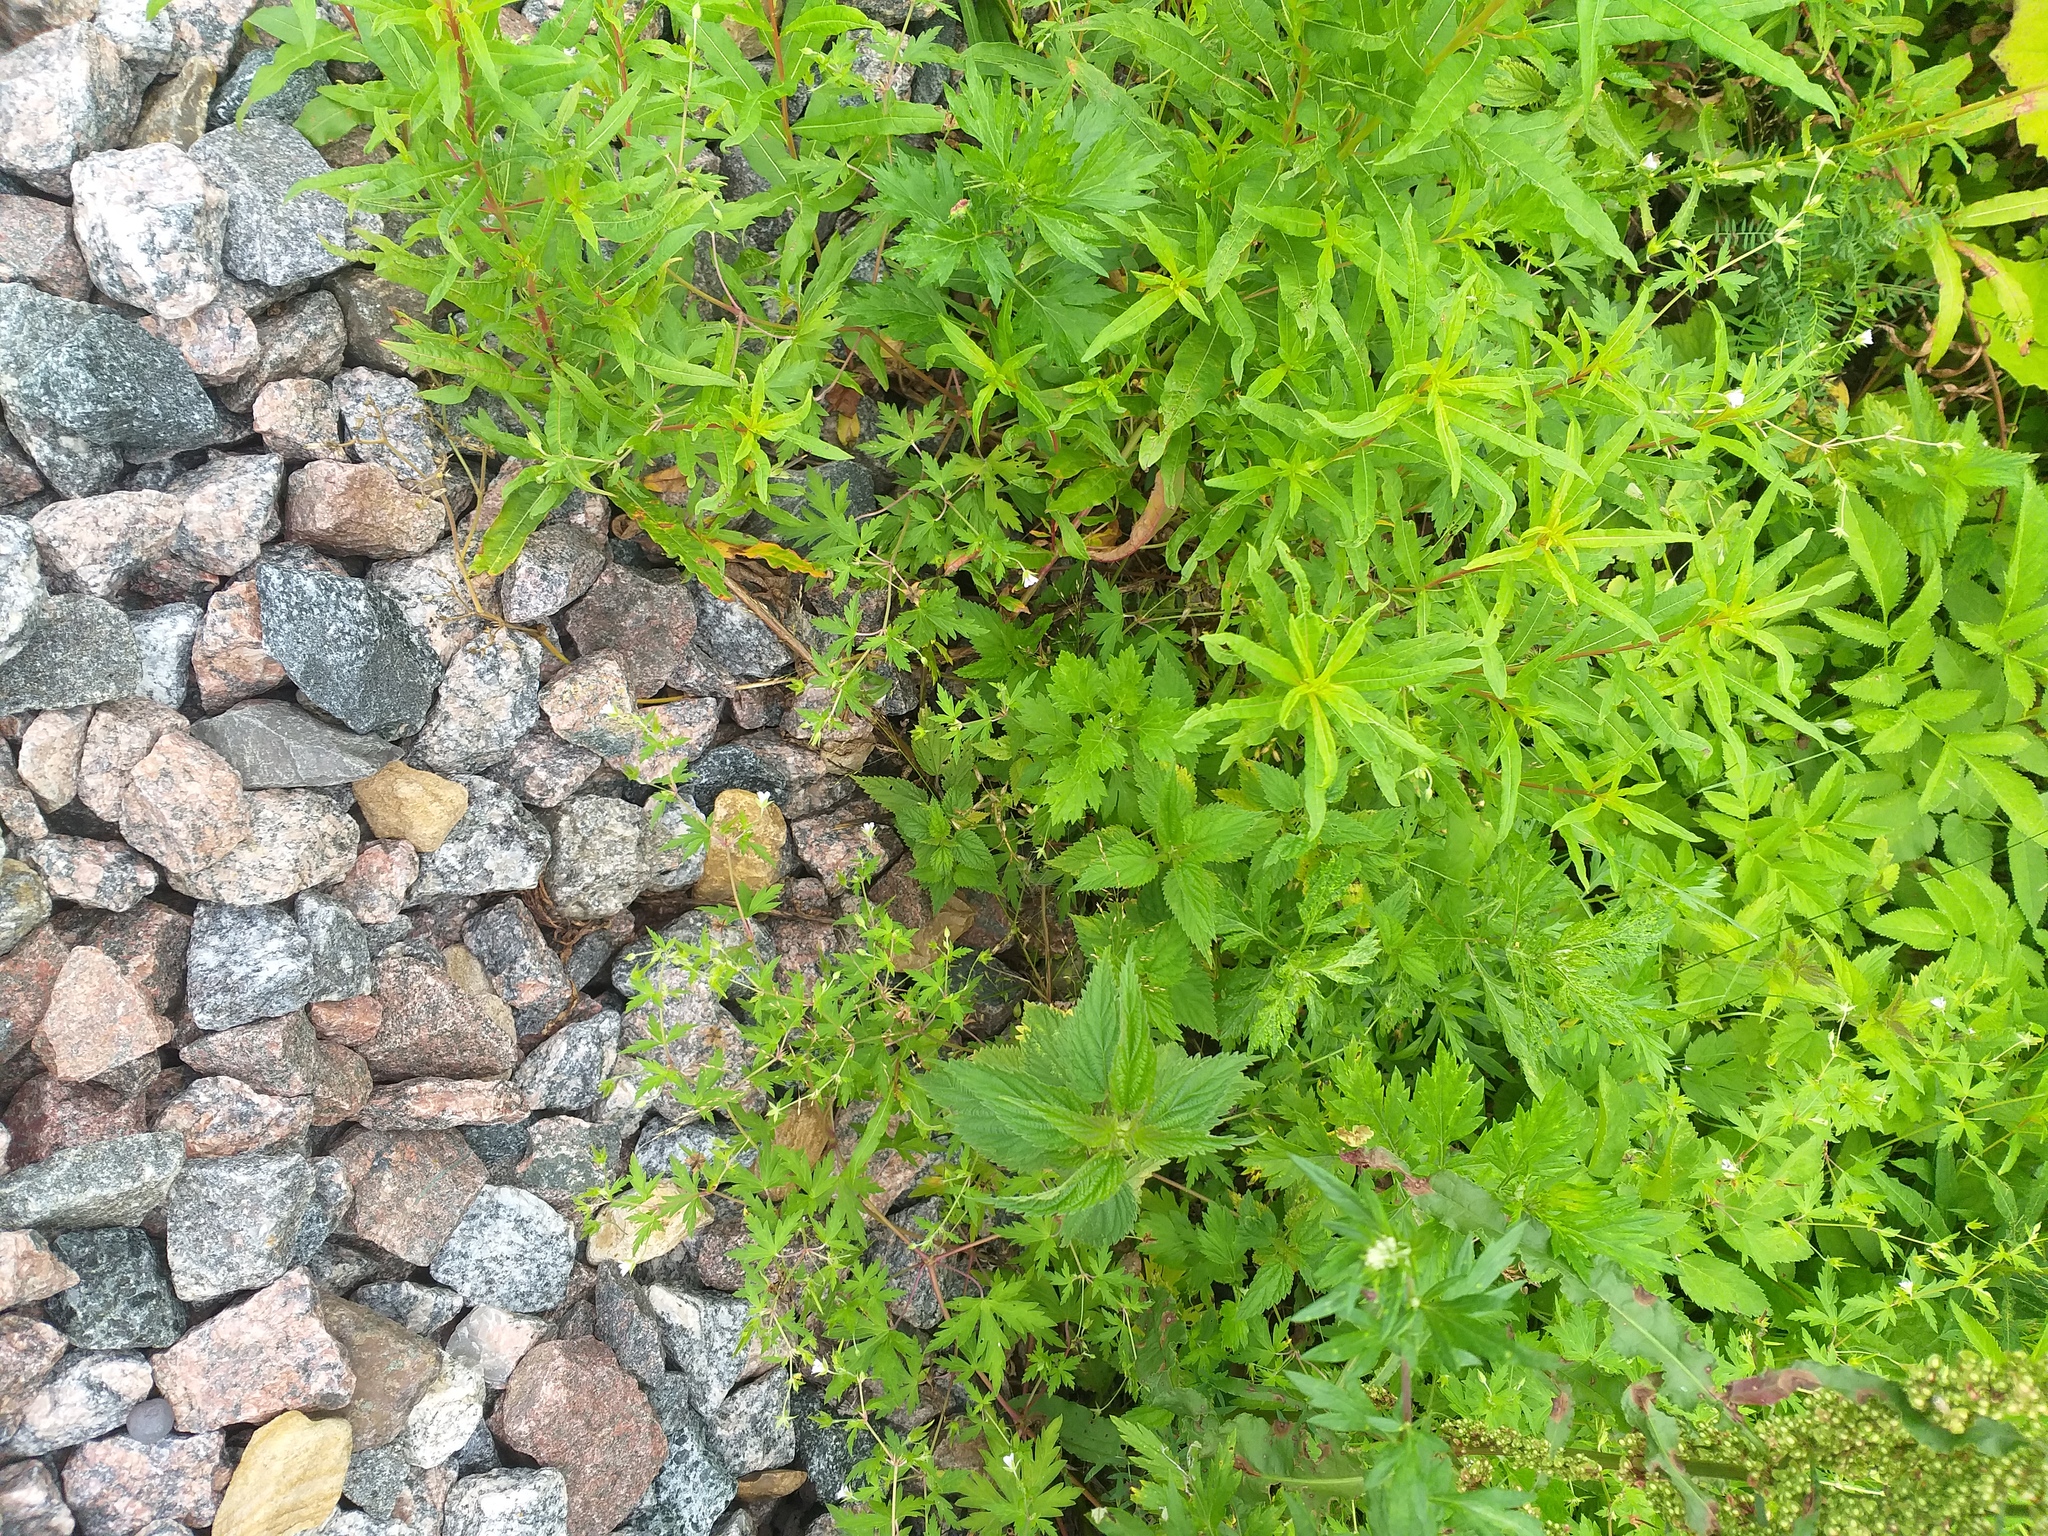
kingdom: Plantae
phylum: Tracheophyta
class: Magnoliopsida
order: Geraniales
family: Geraniaceae
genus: Geranium
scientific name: Geranium sibiricum
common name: Siberian crane's-bill
